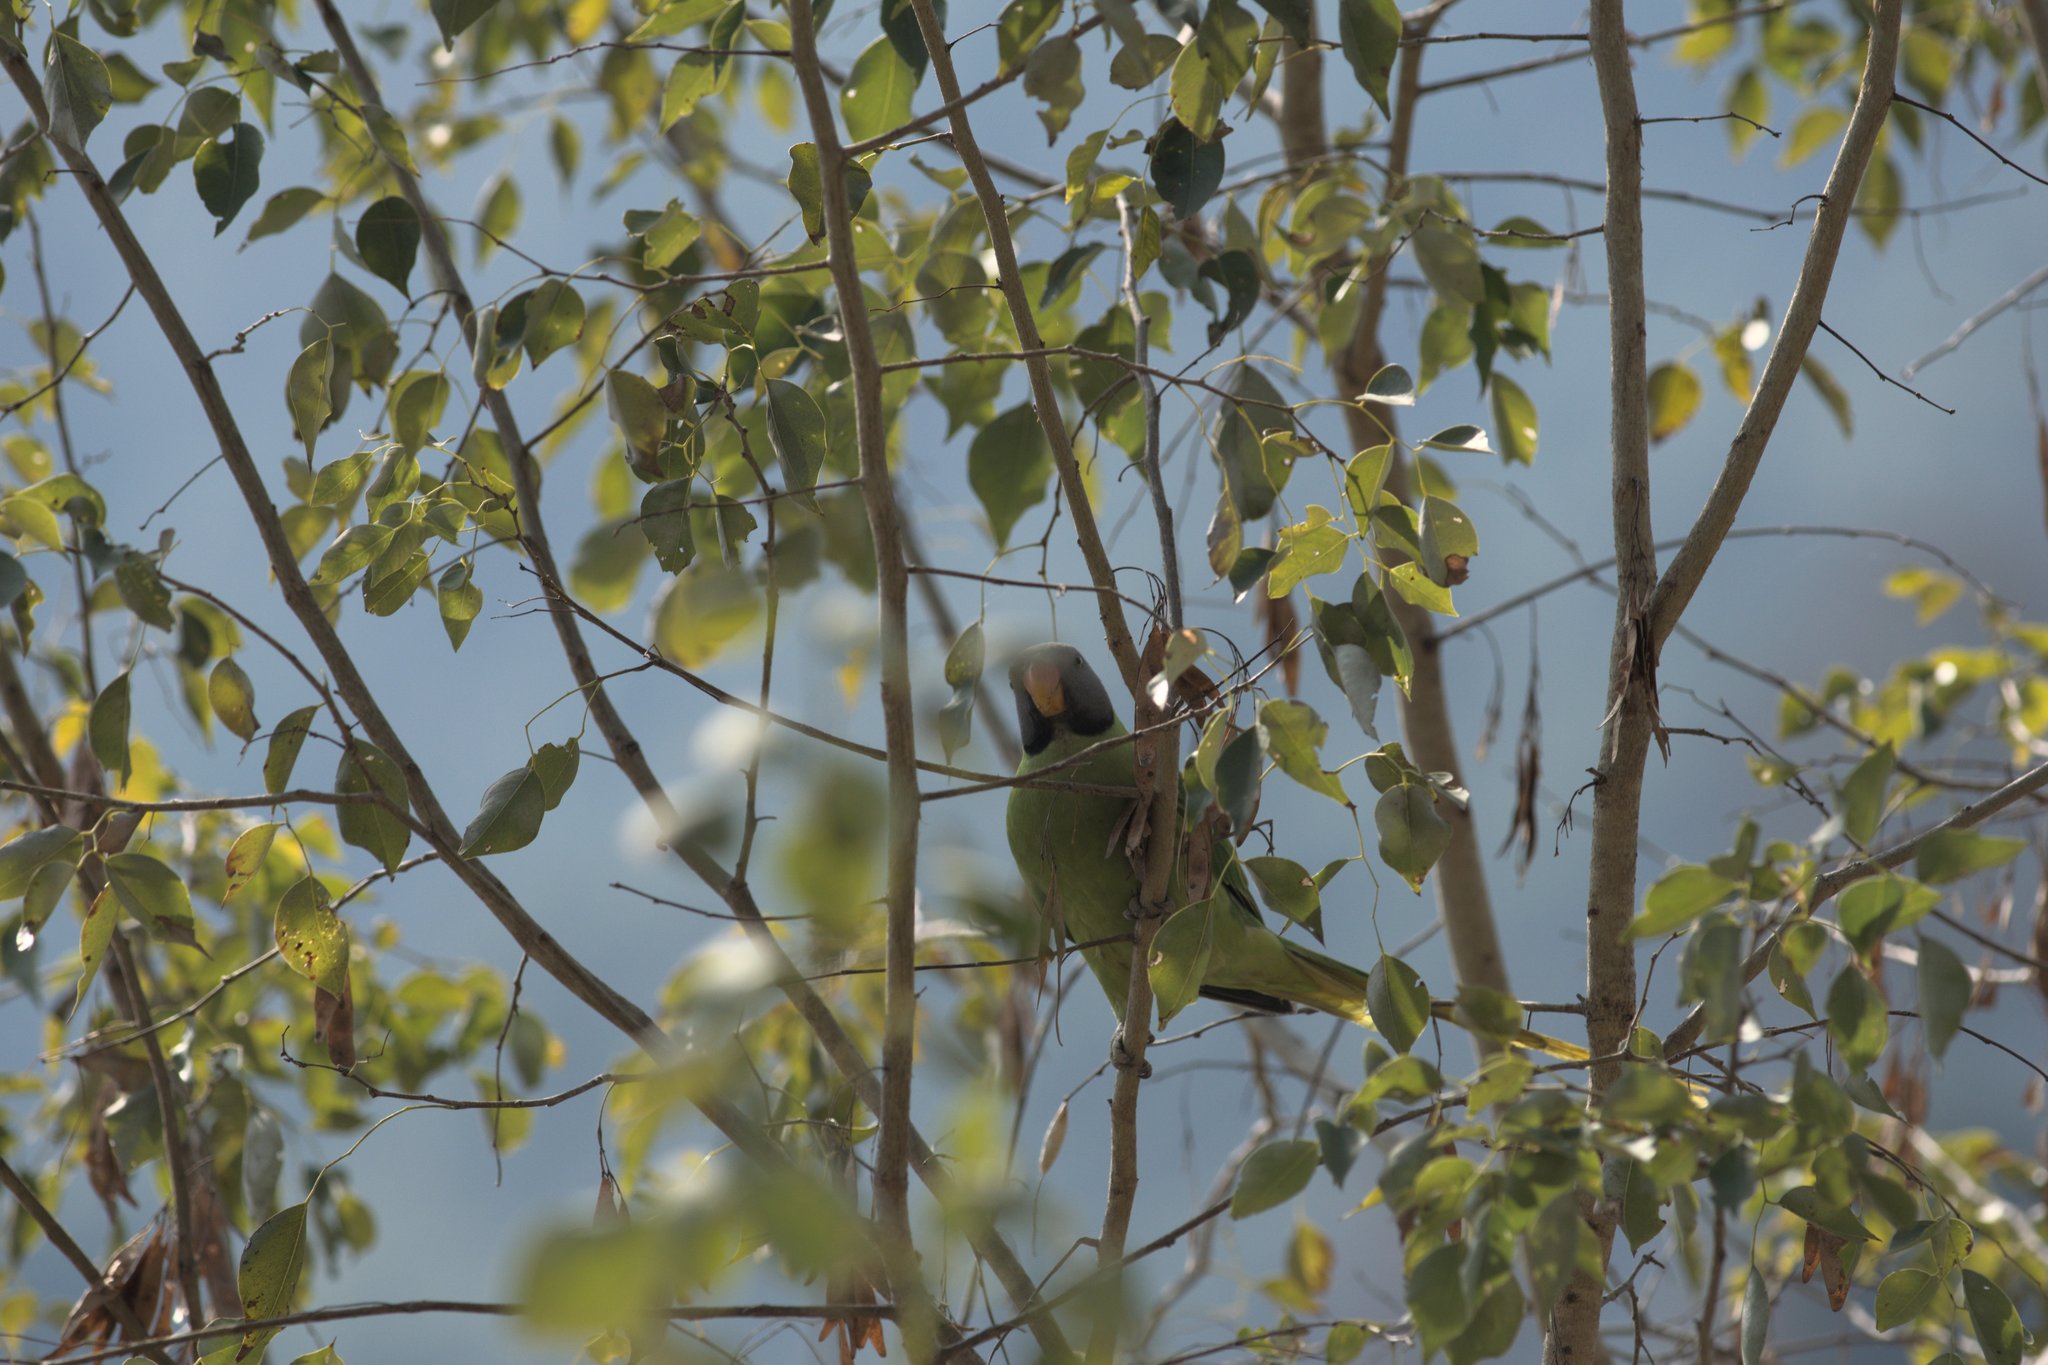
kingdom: Animalia
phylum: Chordata
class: Aves
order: Psittaciformes
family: Psittacidae
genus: Psittacula
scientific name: Psittacula himalayana
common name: Slaty-headed parakeet
